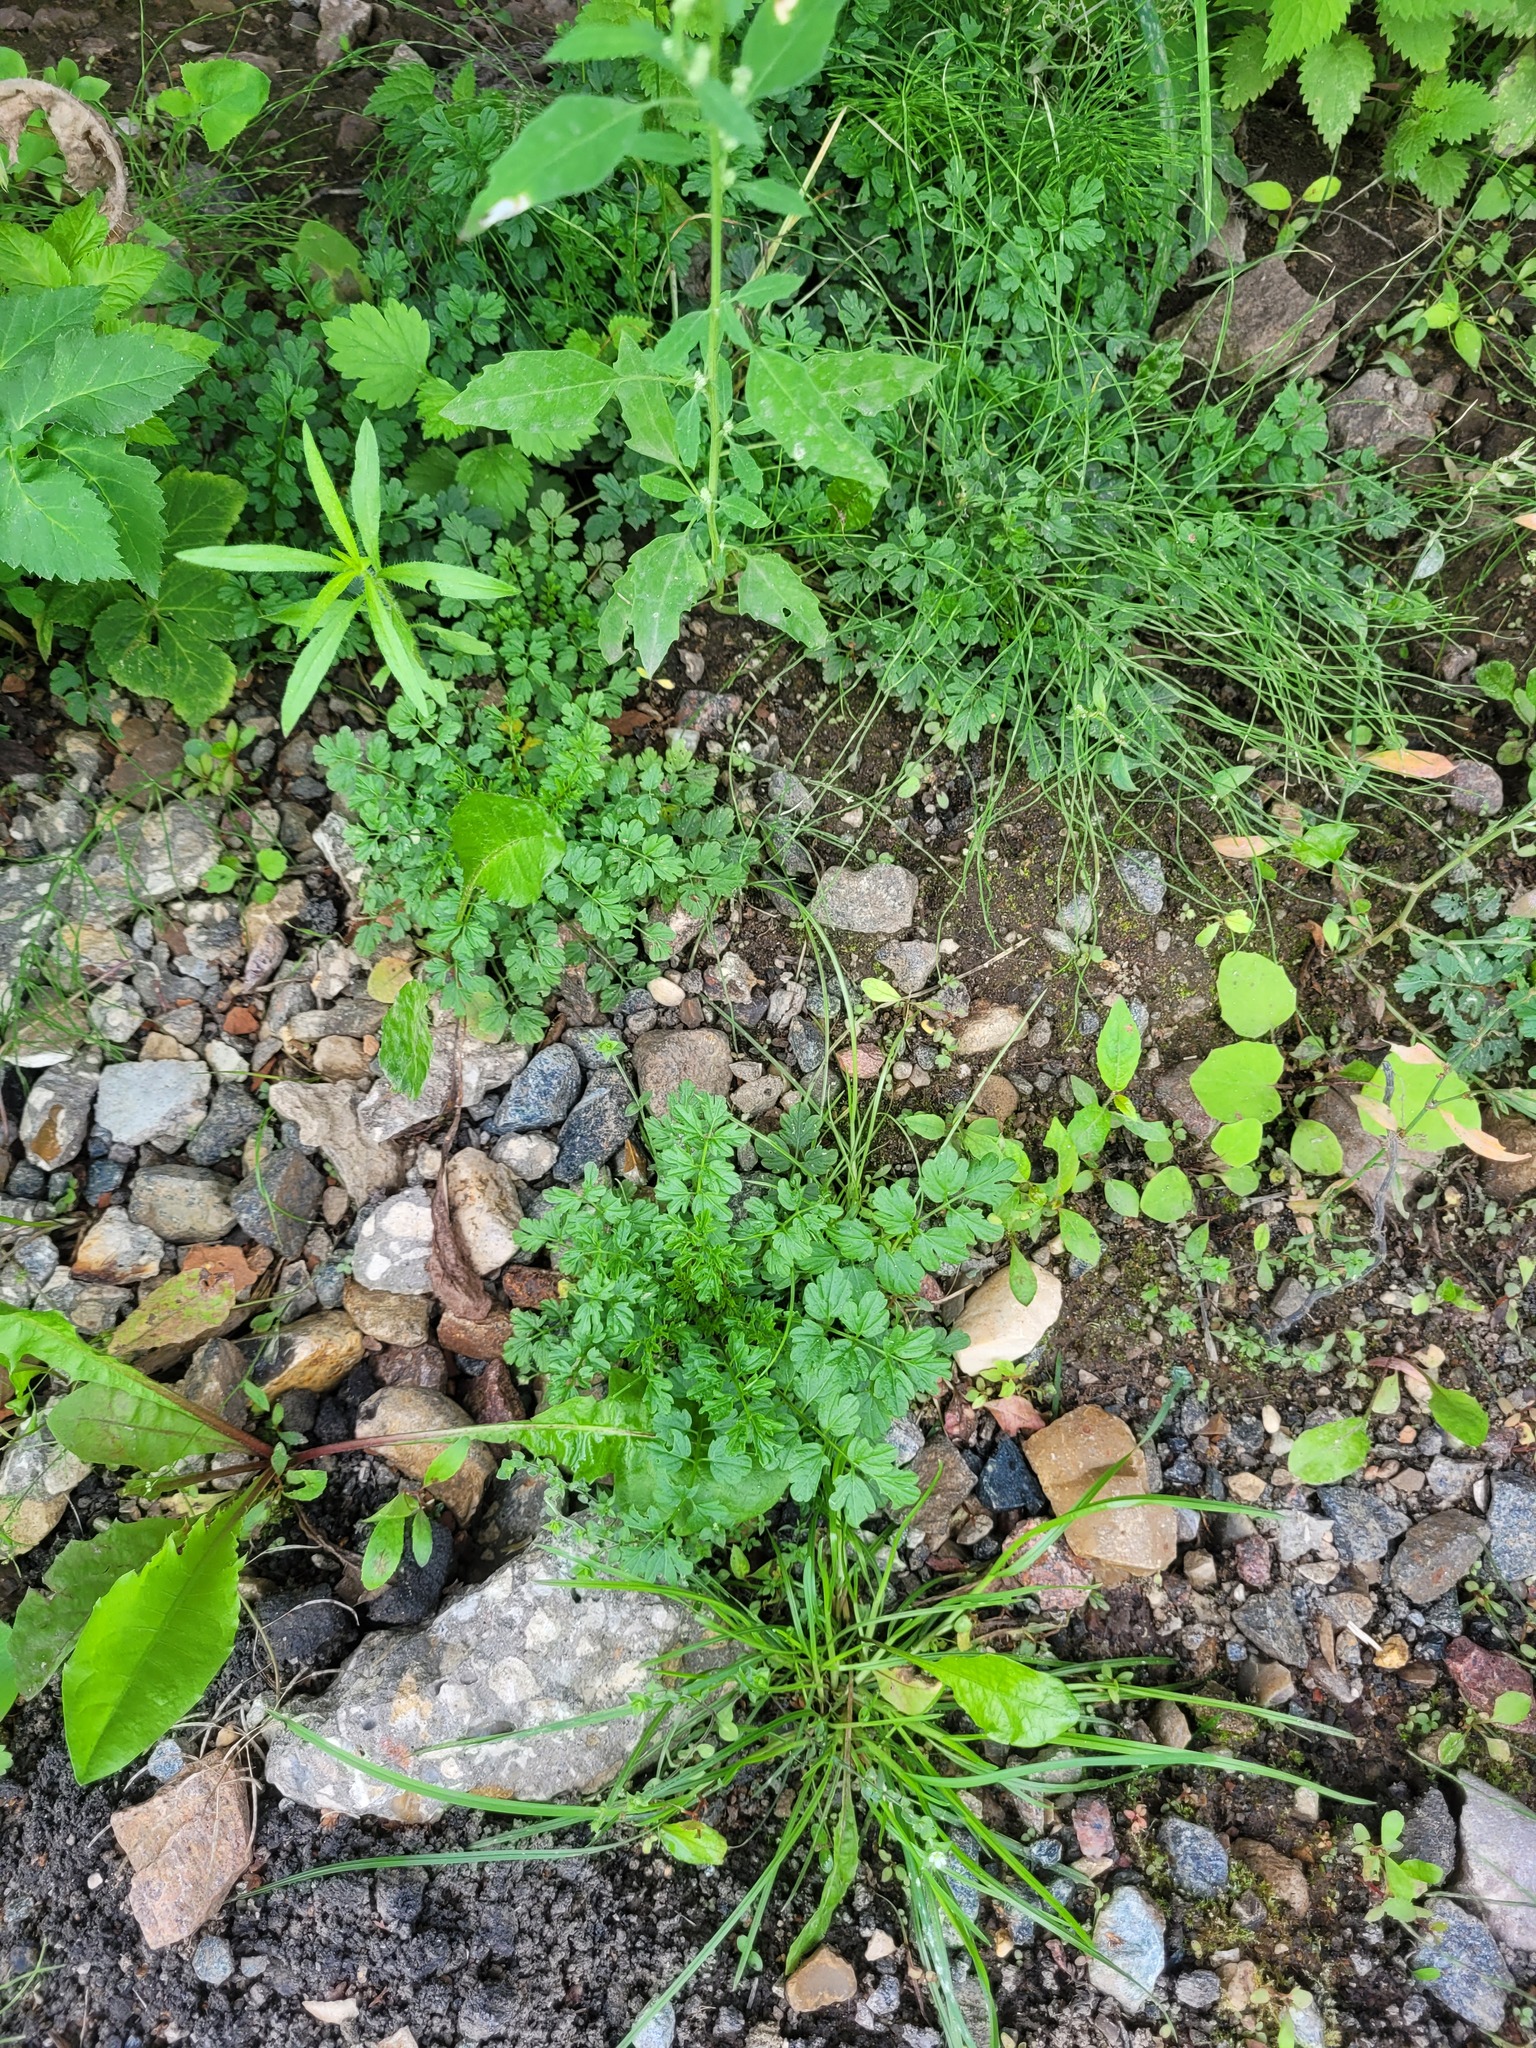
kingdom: Plantae
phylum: Tracheophyta
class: Magnoliopsida
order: Brassicales
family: Brassicaceae
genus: Cardamine
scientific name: Cardamine impatiens
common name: Narrow-leaved bitter-cress
